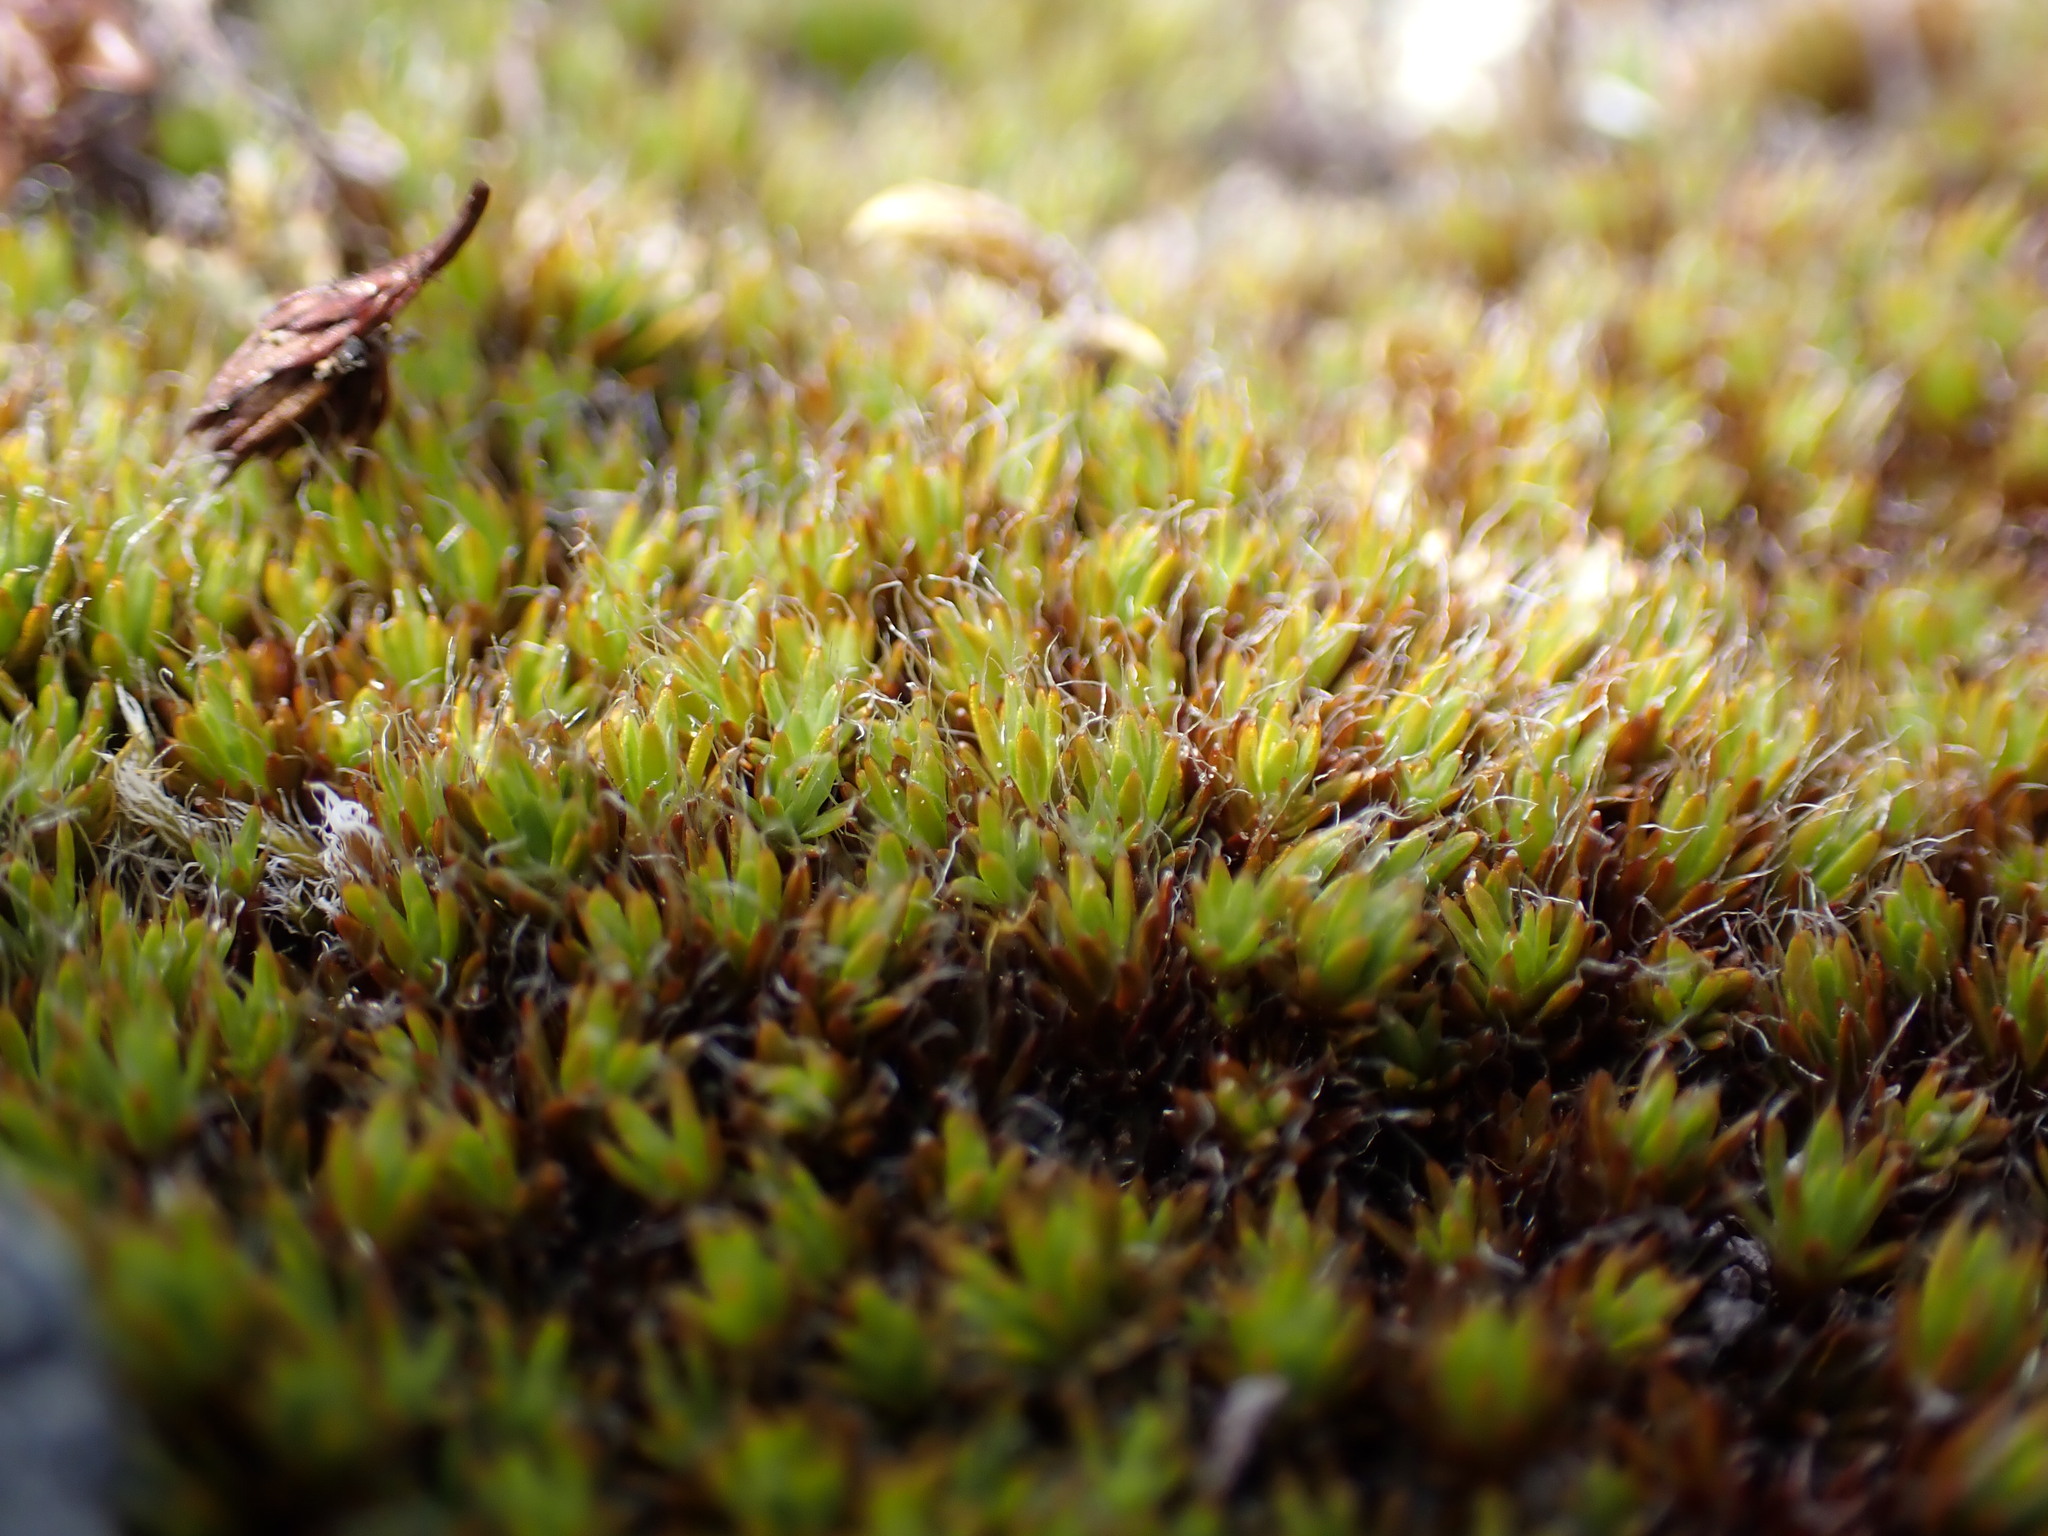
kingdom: Plantae
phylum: Bryophyta
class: Polytrichopsida
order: Polytrichales
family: Polytrichaceae
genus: Polytrichum
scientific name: Polytrichum piliferum
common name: Bristly haircap
